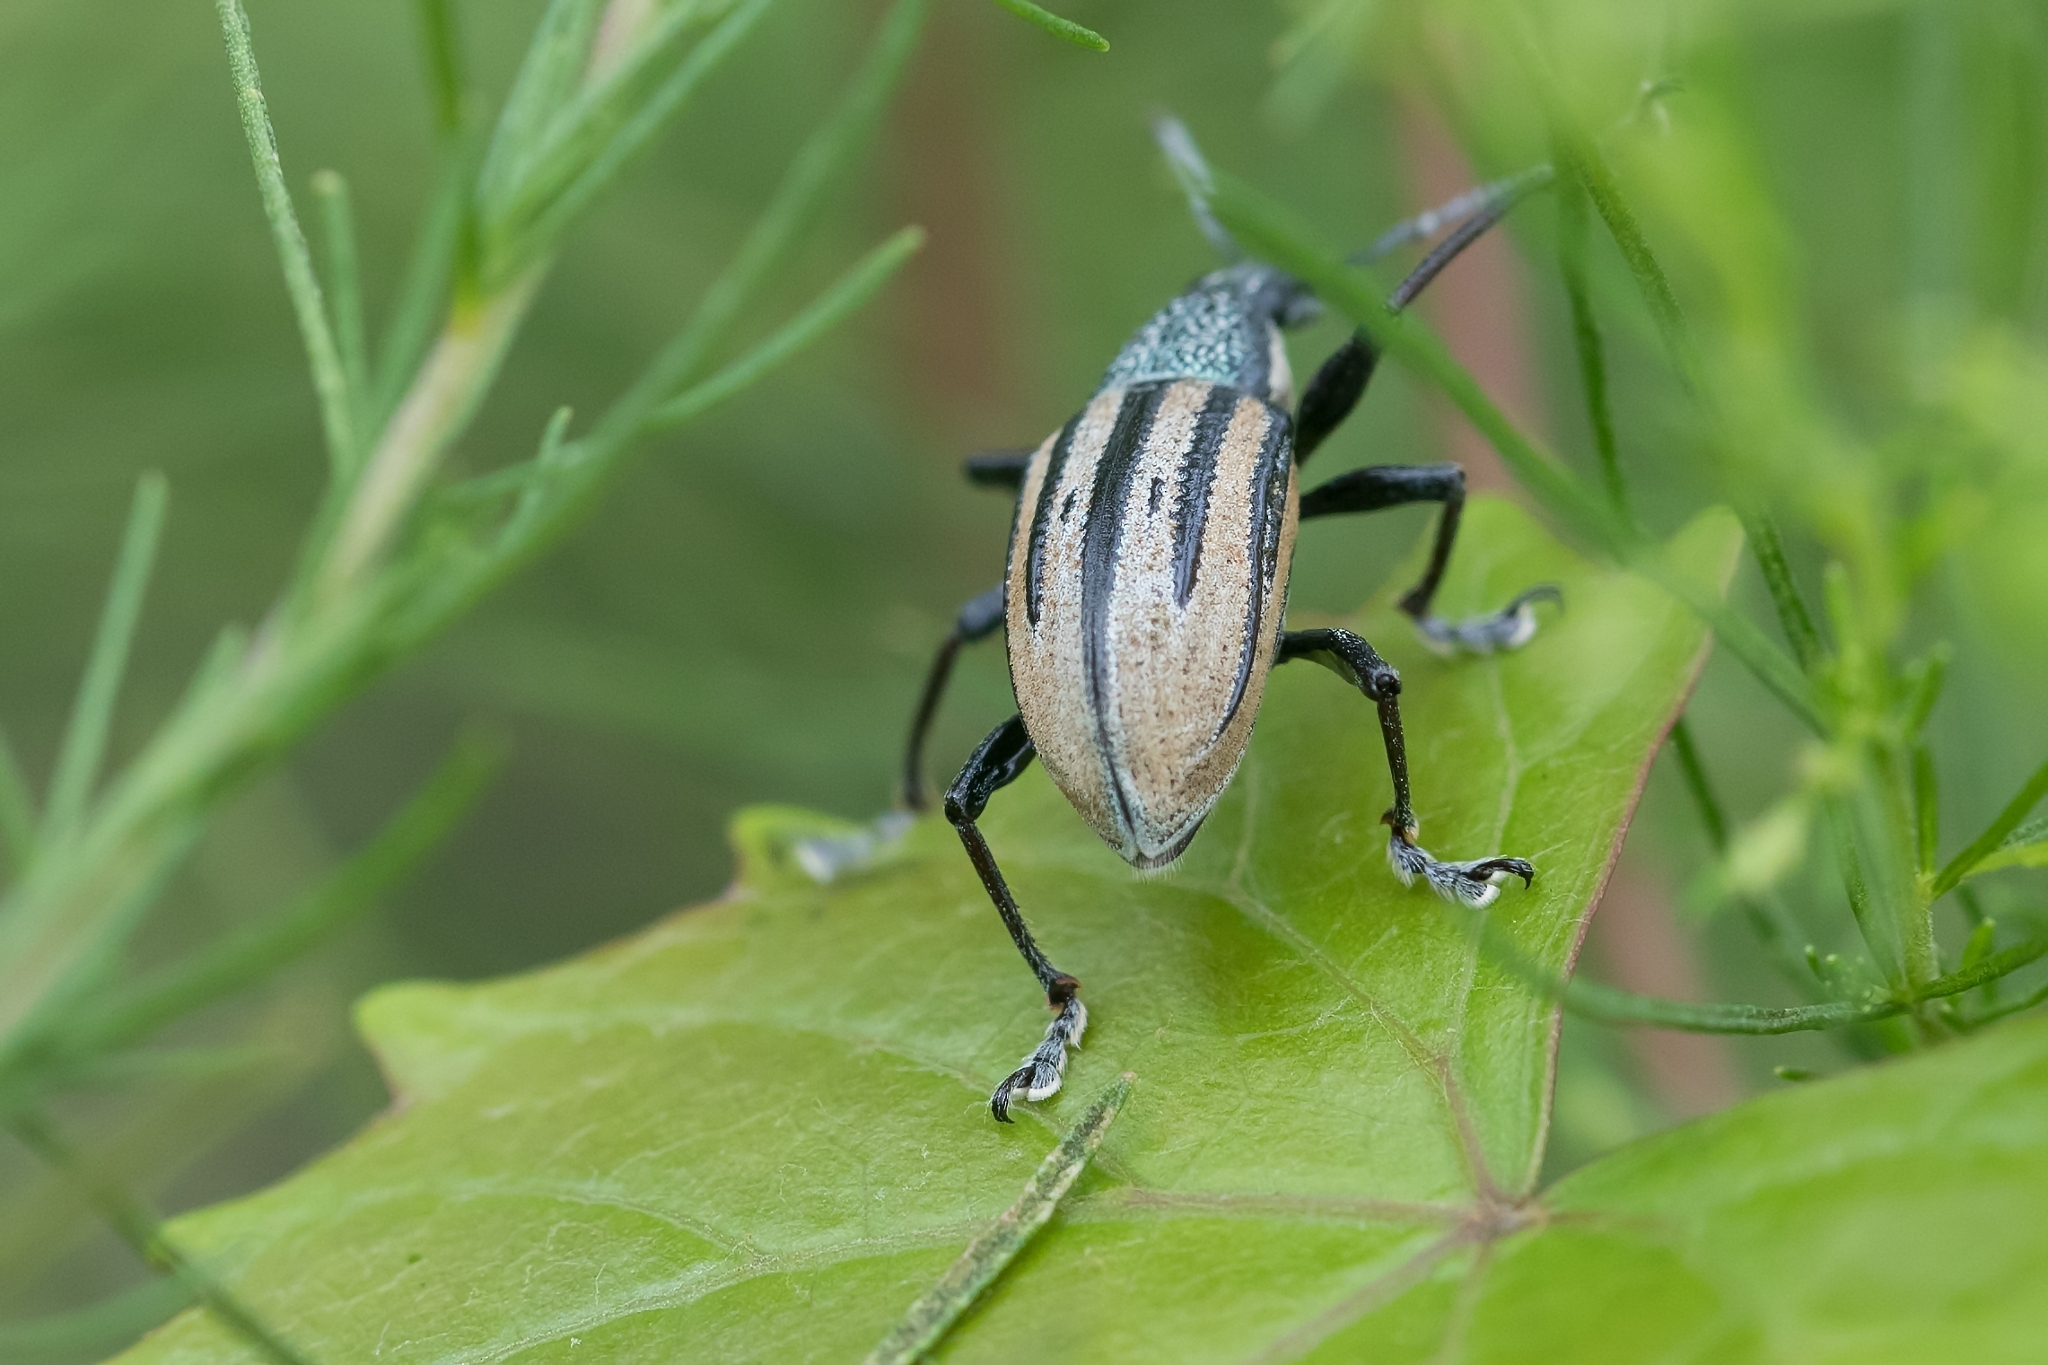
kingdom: Animalia
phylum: Arthropoda
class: Insecta
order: Coleoptera
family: Curculionidae
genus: Diaprepes
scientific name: Diaprepes abbreviatus
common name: Root weevil
